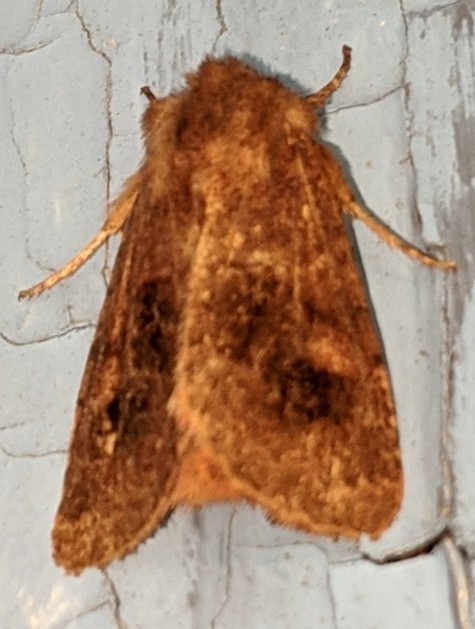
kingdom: Animalia
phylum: Arthropoda
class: Insecta
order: Lepidoptera
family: Noctuidae
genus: Nephelodes
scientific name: Nephelodes minians
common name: Bronzed cutworm
